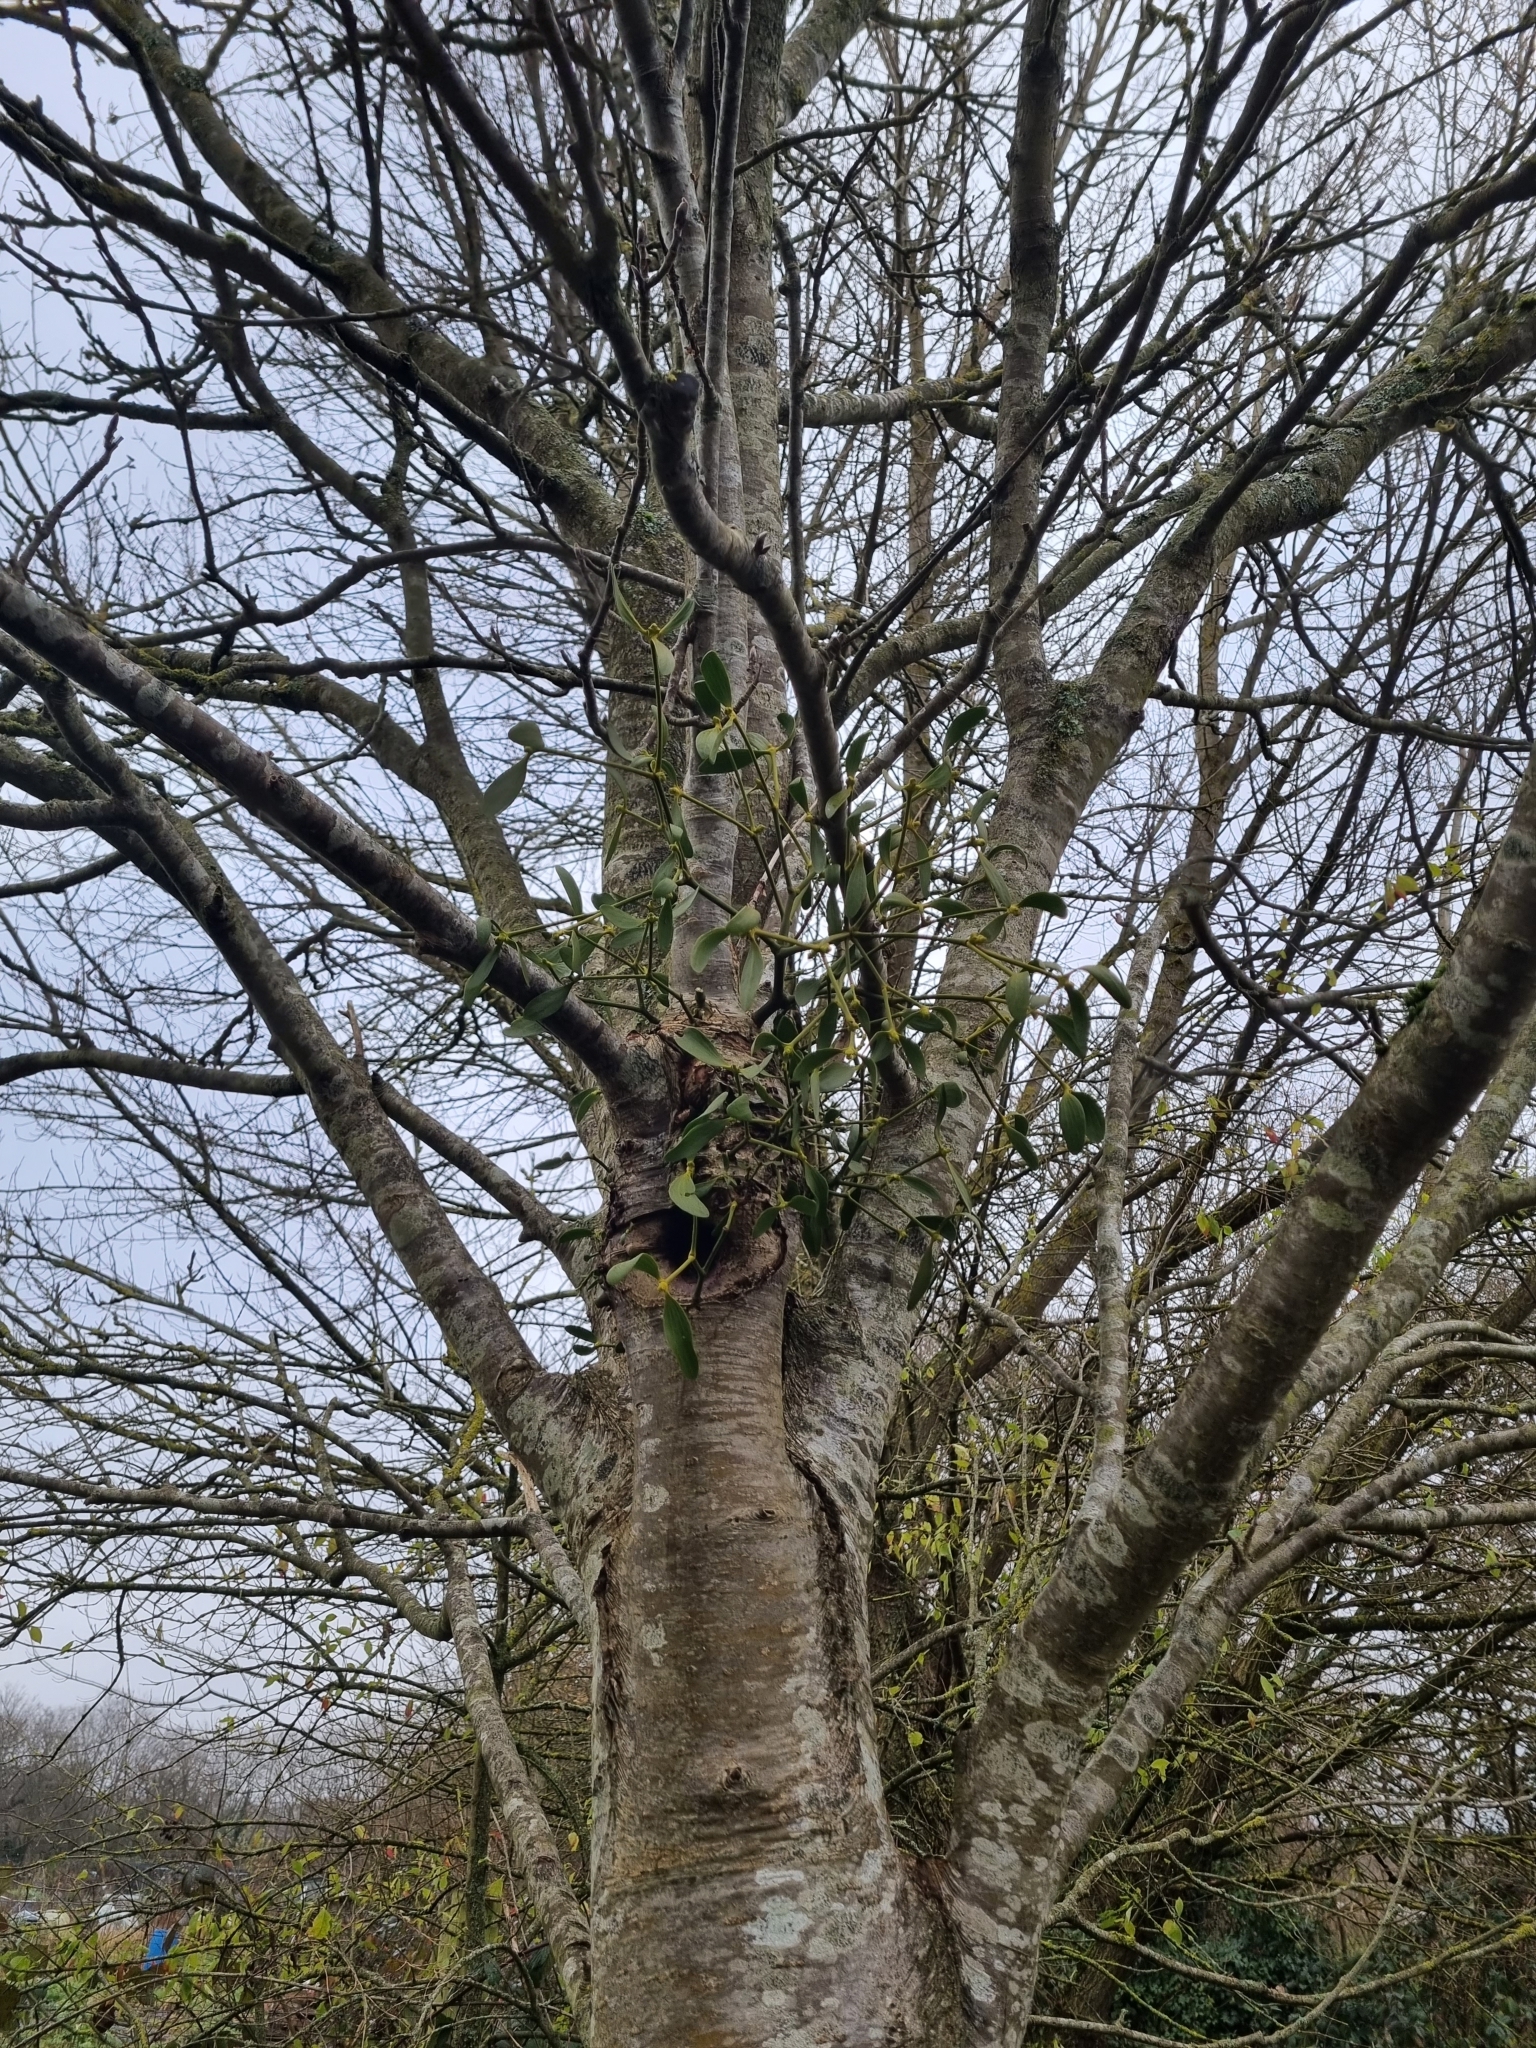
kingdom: Plantae
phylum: Tracheophyta
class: Magnoliopsida
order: Santalales
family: Viscaceae
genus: Viscum
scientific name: Viscum album
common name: Mistletoe
